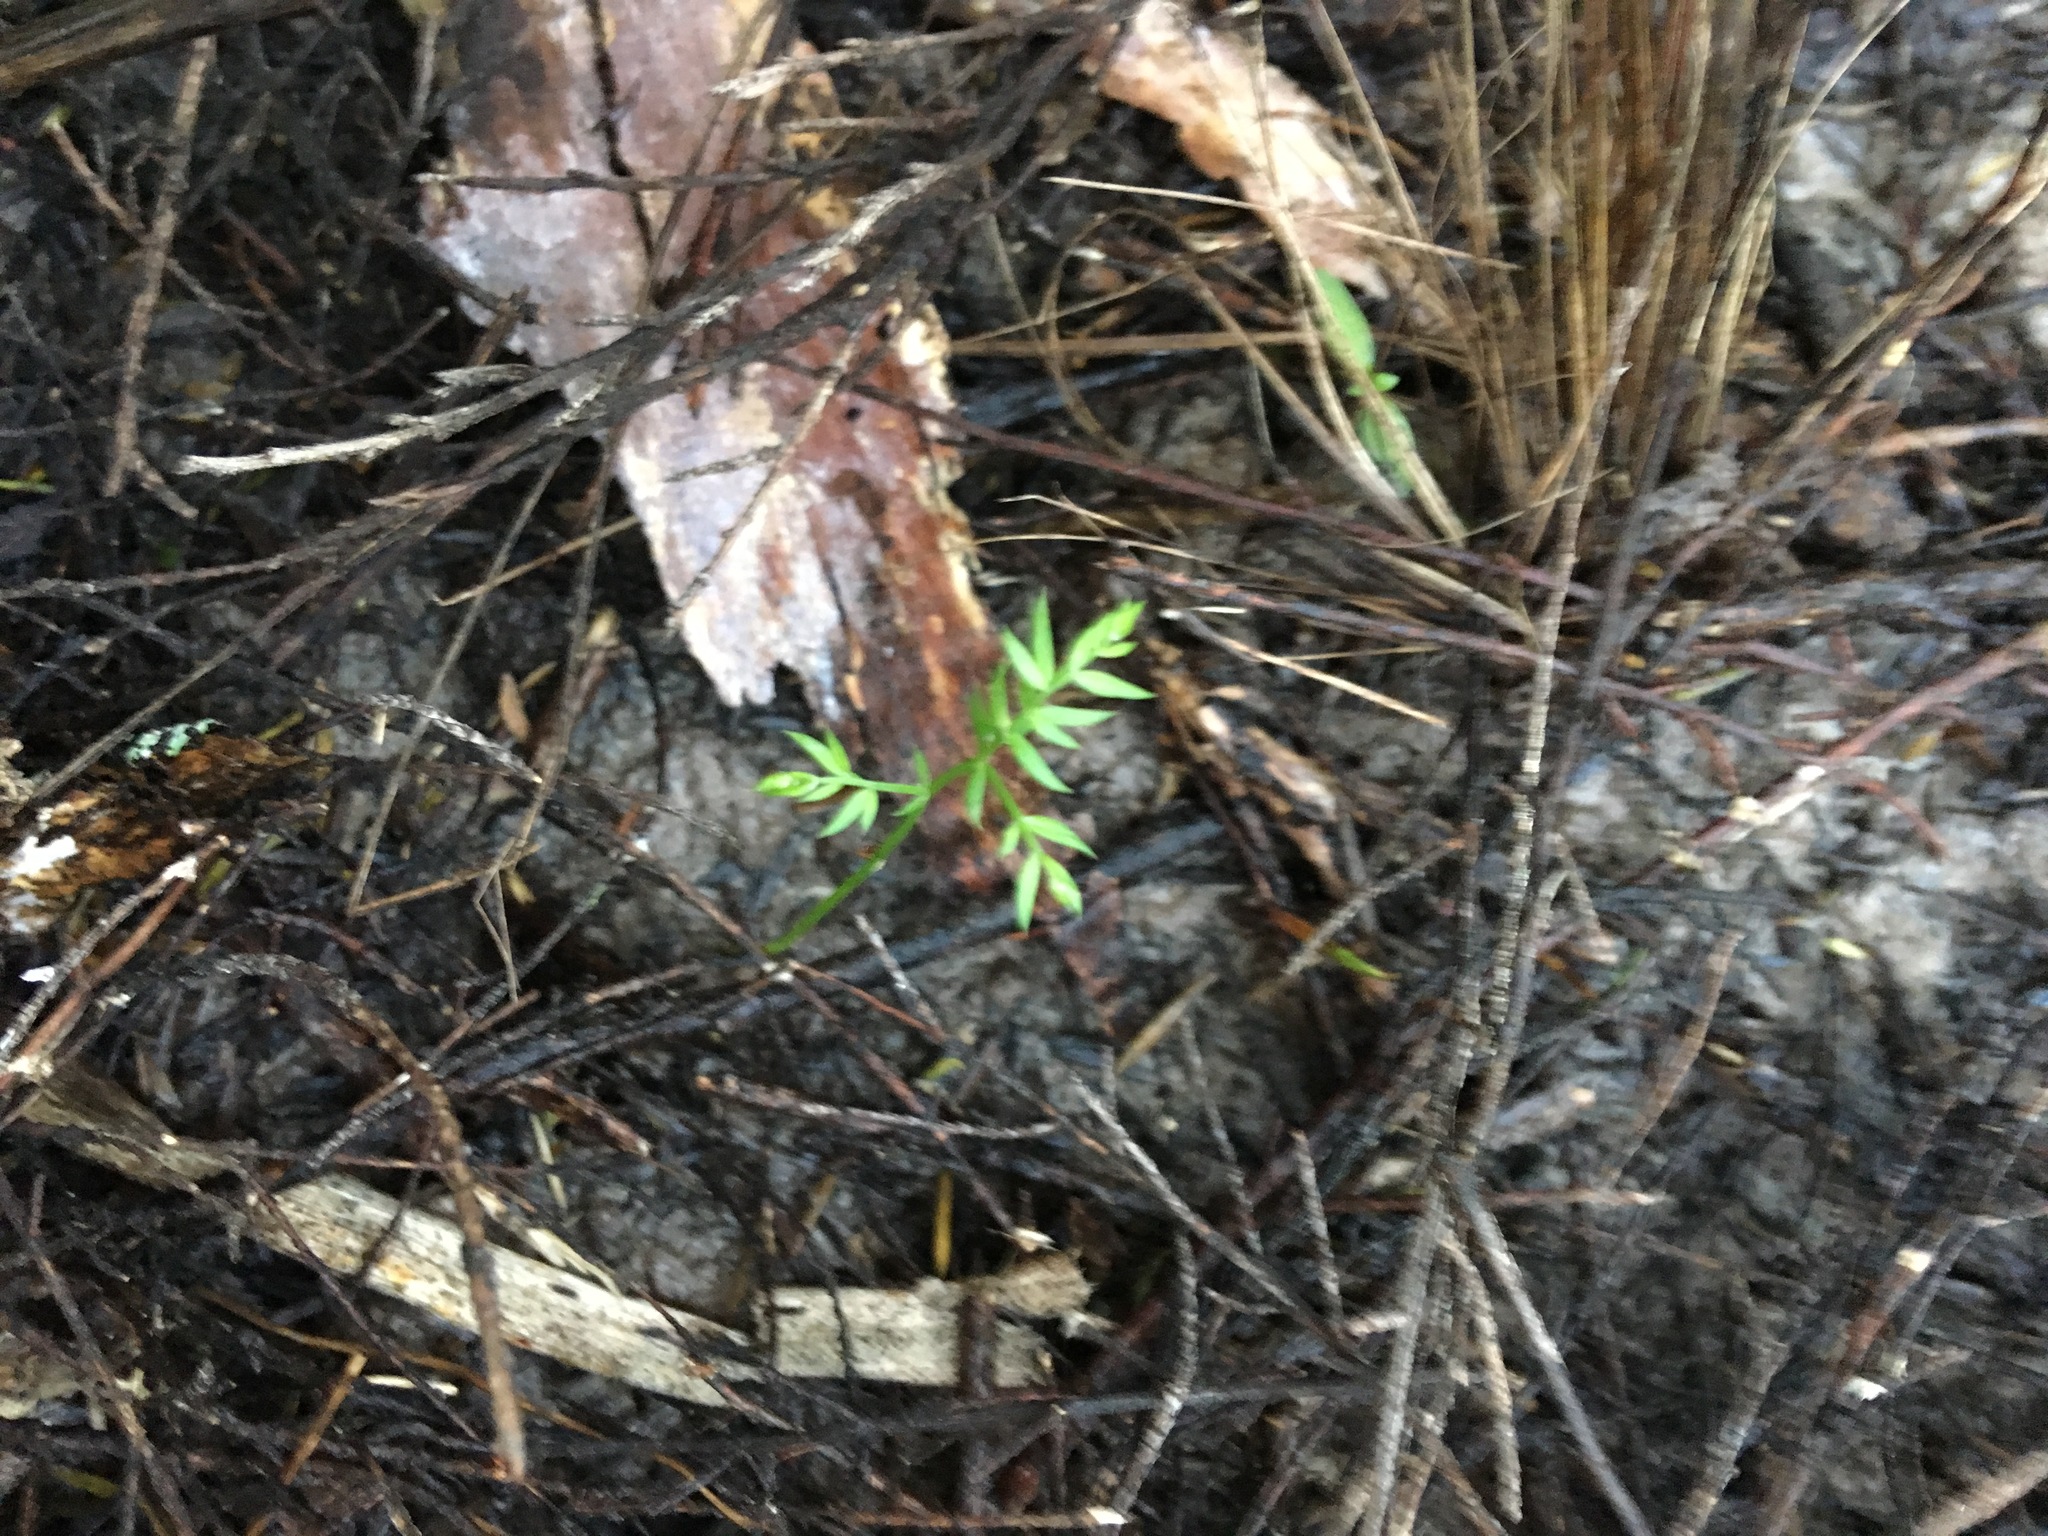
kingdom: Plantae
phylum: Tracheophyta
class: Liliopsida
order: Asparagales
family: Asparagaceae
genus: Asparagus
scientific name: Asparagus scandens
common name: Asparagus-fern
